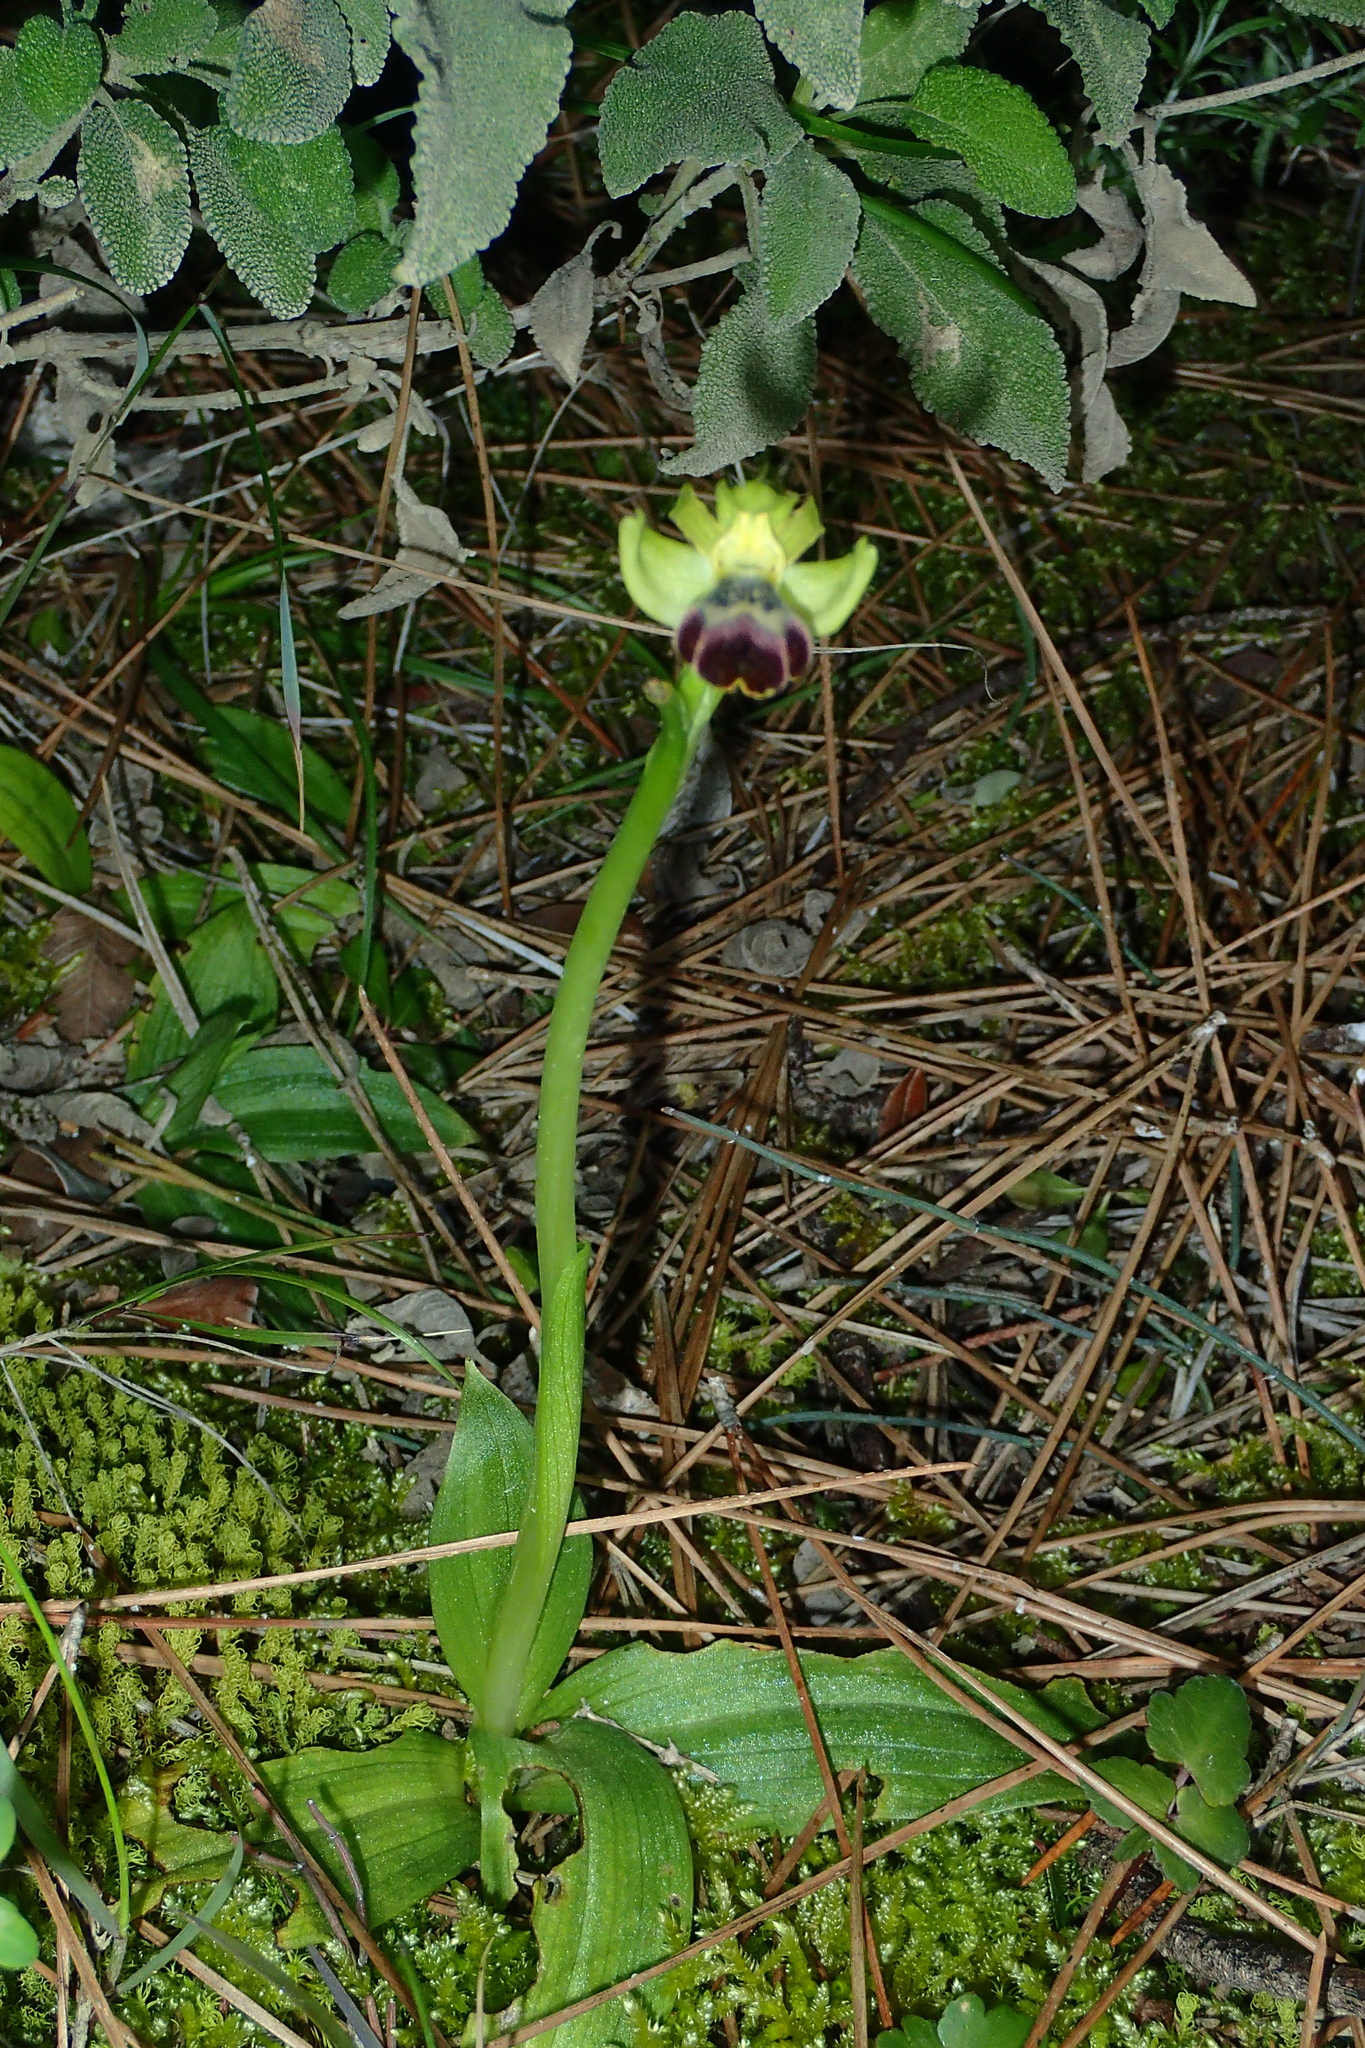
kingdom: Plantae
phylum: Tracheophyta
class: Liliopsida
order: Asparagales
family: Orchidaceae
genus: Ophrys
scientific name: Ophrys omegaifera
